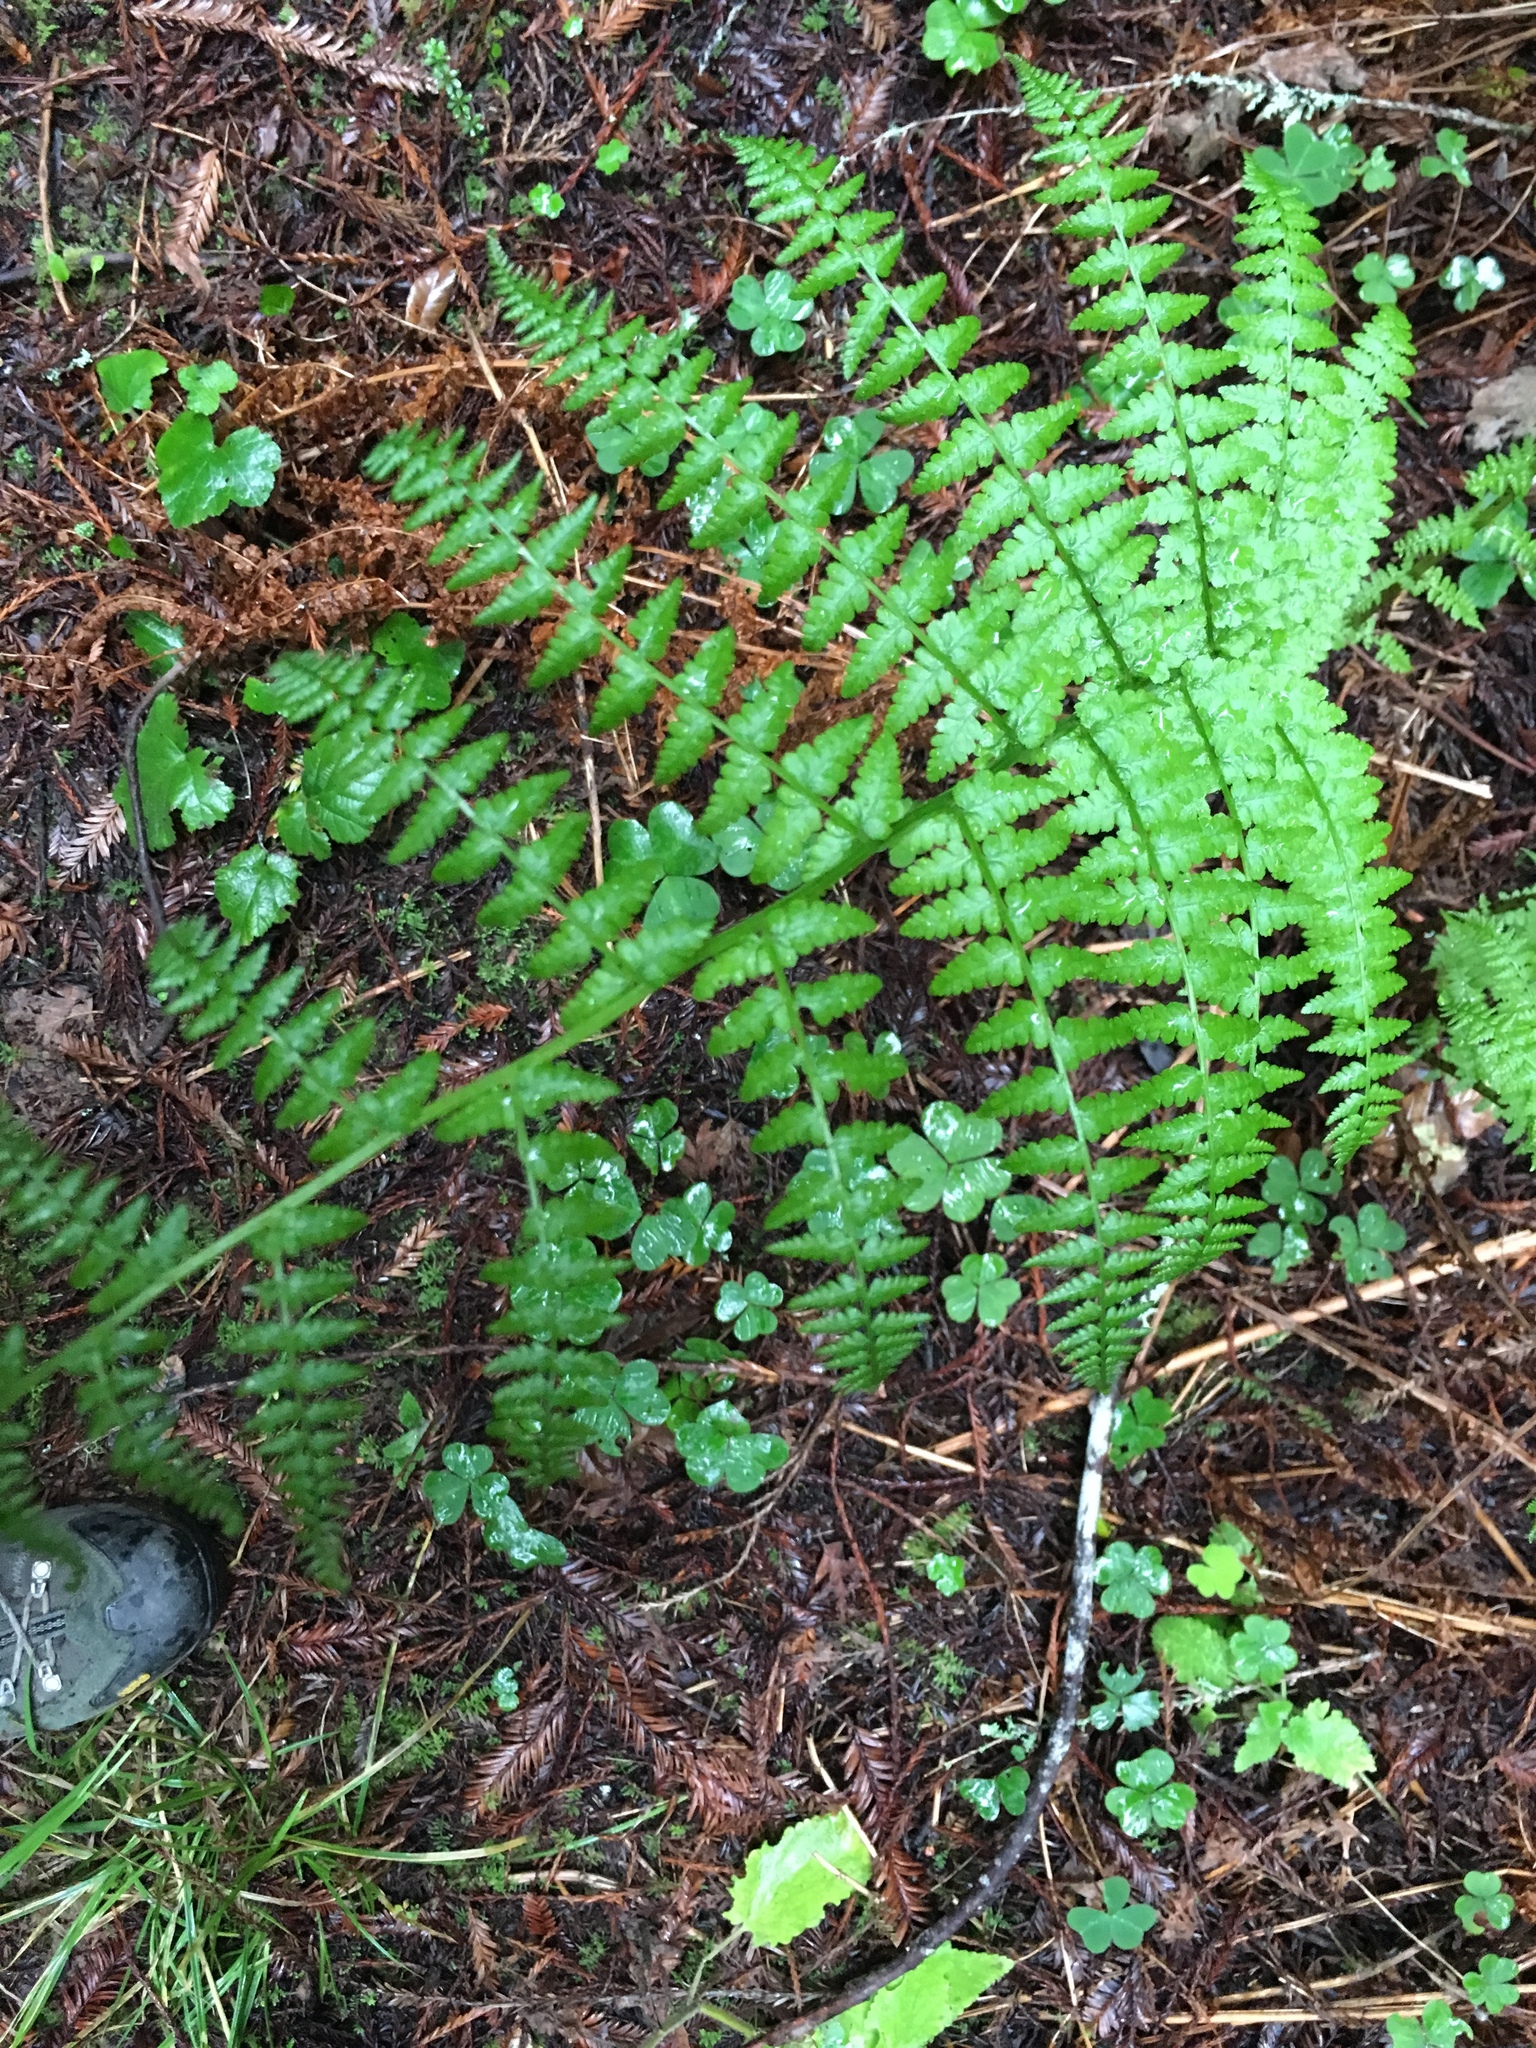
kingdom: Plantae
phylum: Tracheophyta
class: Polypodiopsida
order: Polypodiales
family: Athyriaceae
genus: Athyrium
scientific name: Athyrium cyclosorum
